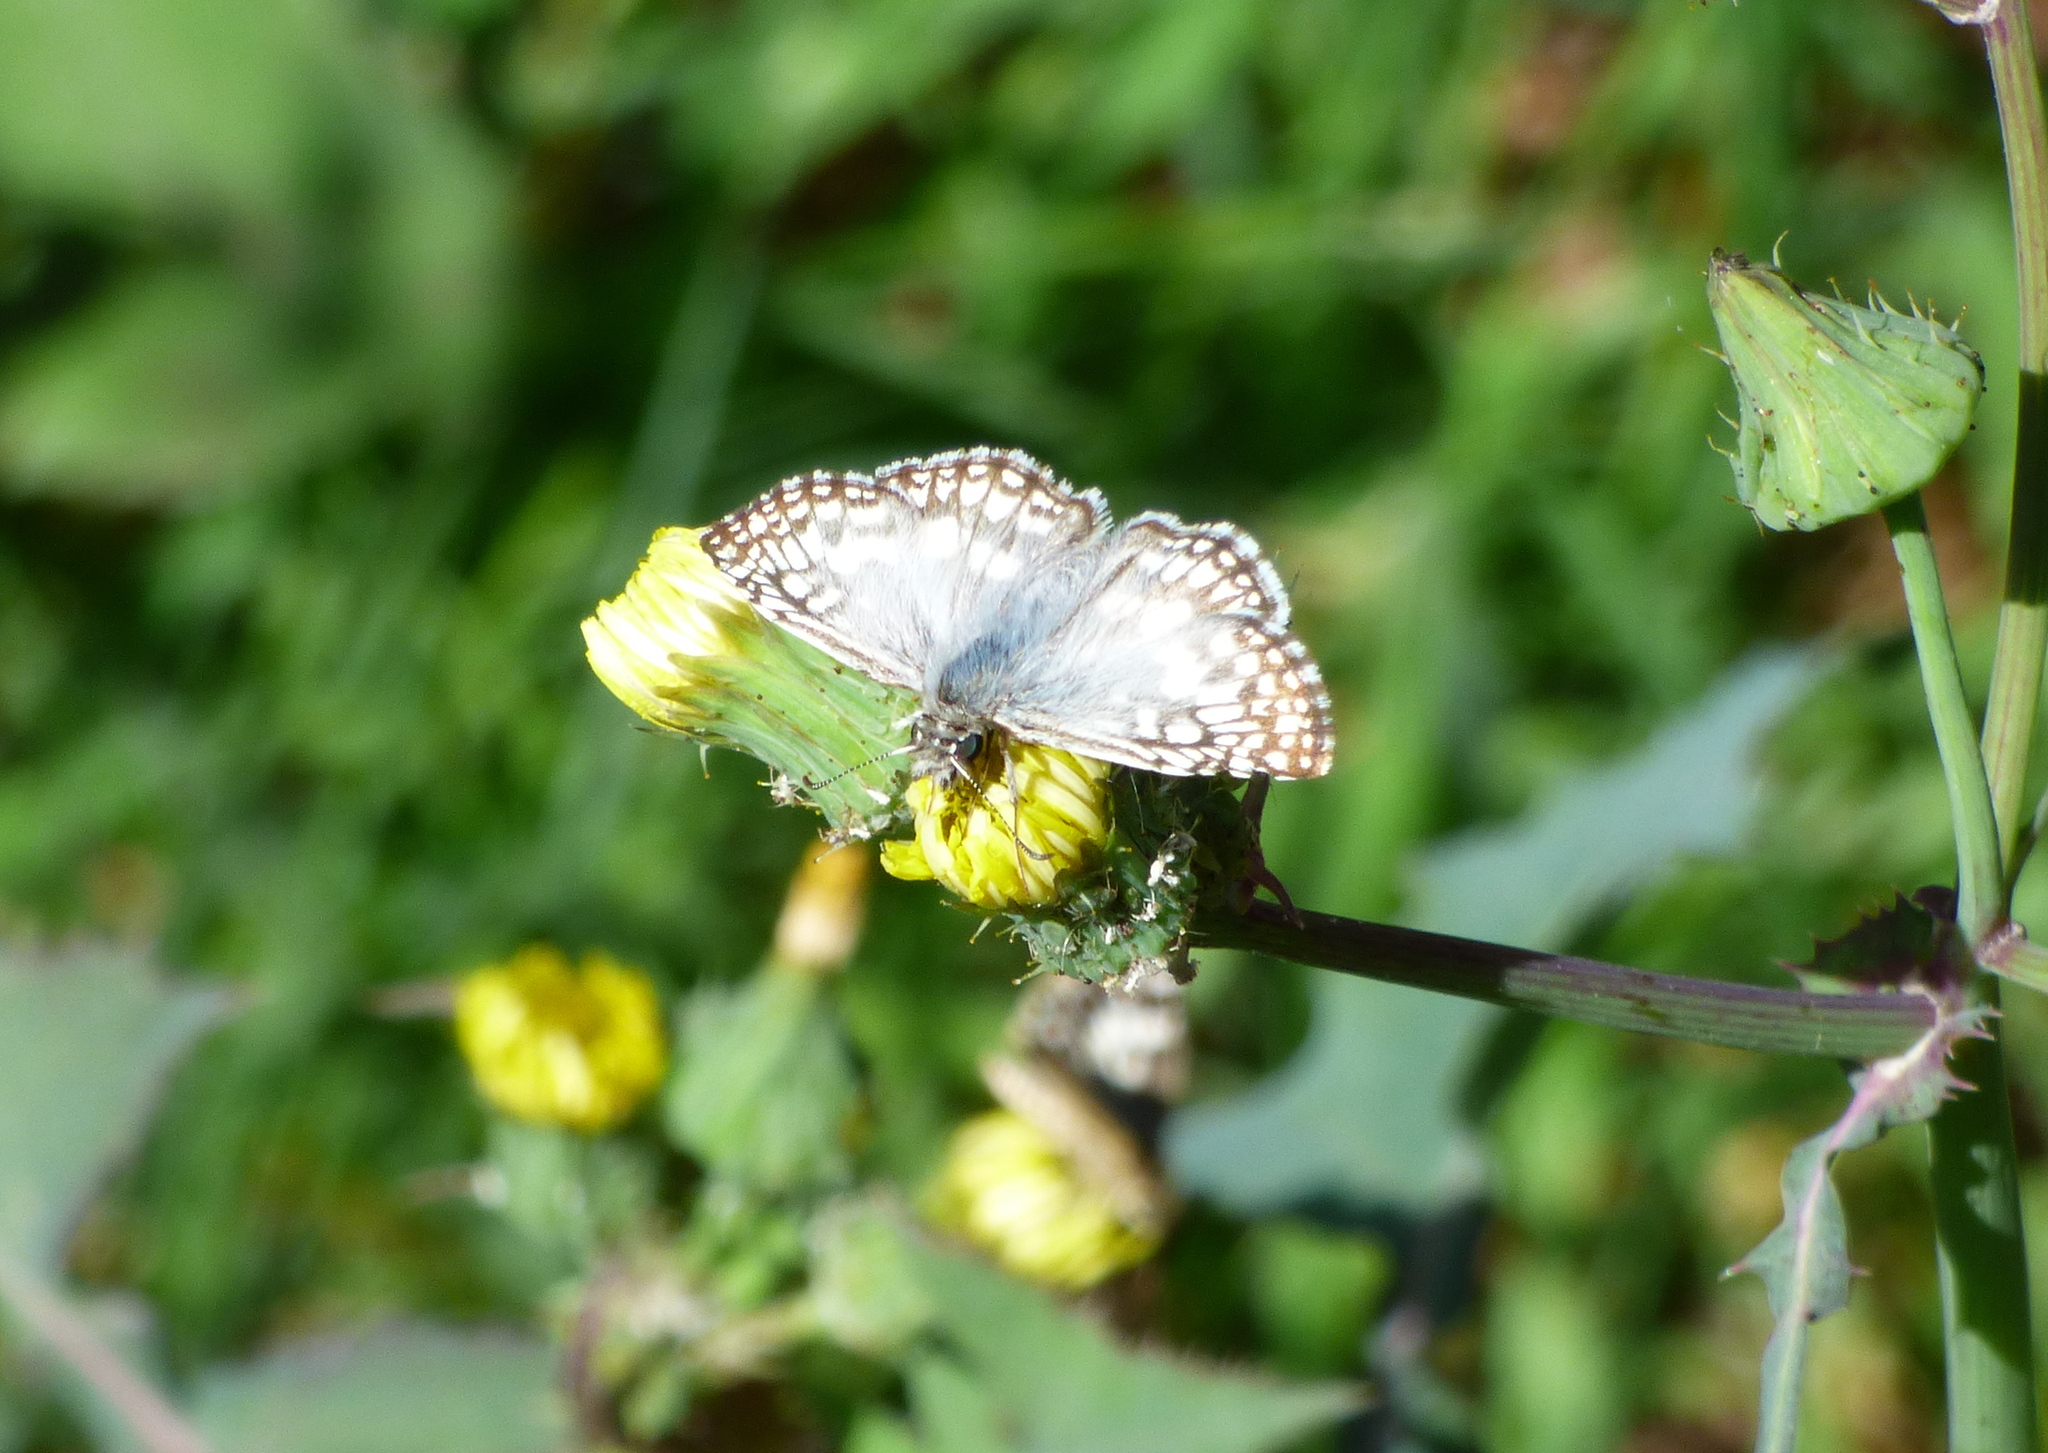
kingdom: Animalia
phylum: Arthropoda
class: Insecta
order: Lepidoptera
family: Hesperiidae
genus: Pyrgus
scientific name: Pyrgus oileus
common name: Tropical checkered-skipper
